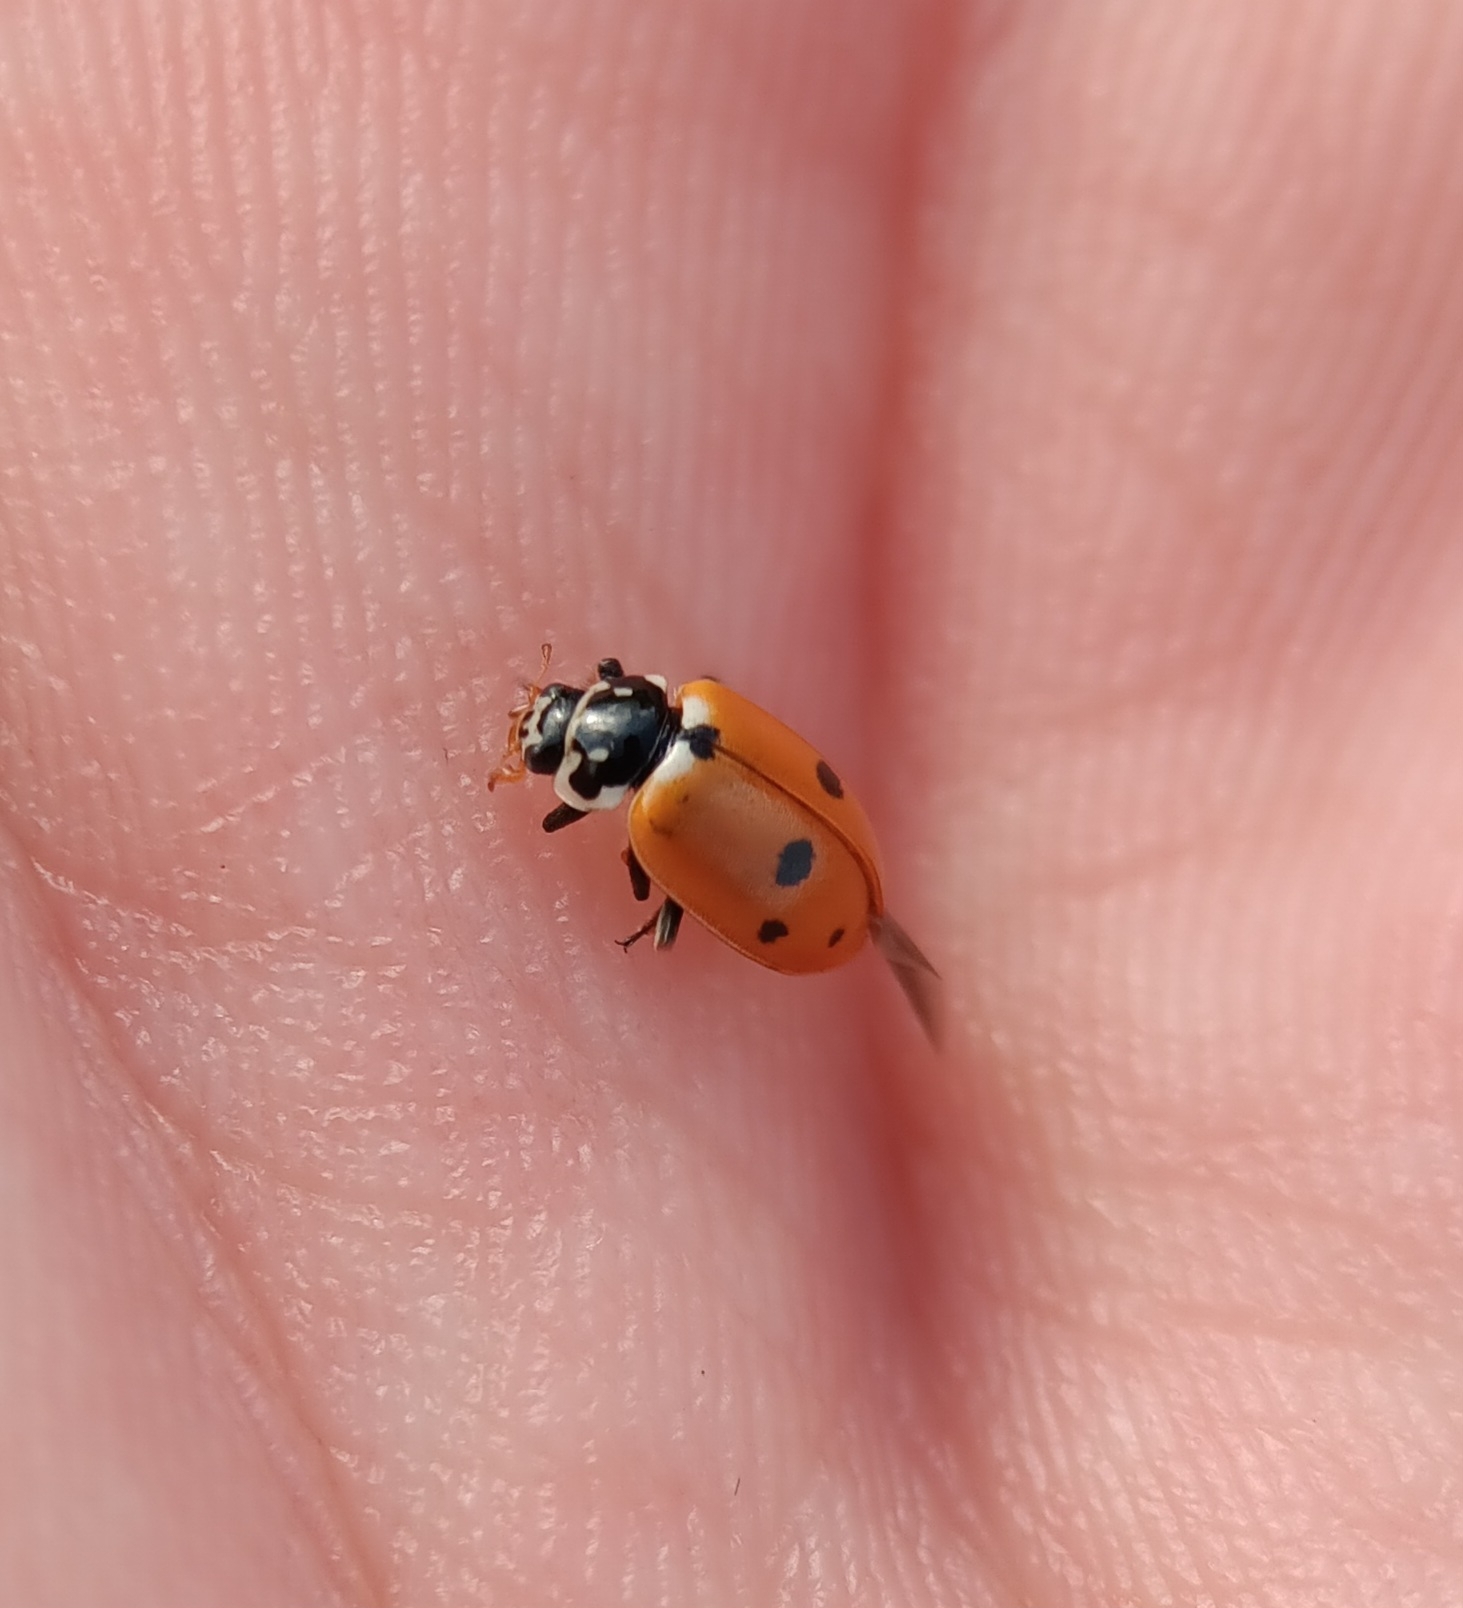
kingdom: Animalia
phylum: Arthropoda
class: Insecta
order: Coleoptera
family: Coccinellidae
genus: Hippodamia
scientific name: Hippodamia variegata
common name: Ladybird beetle
